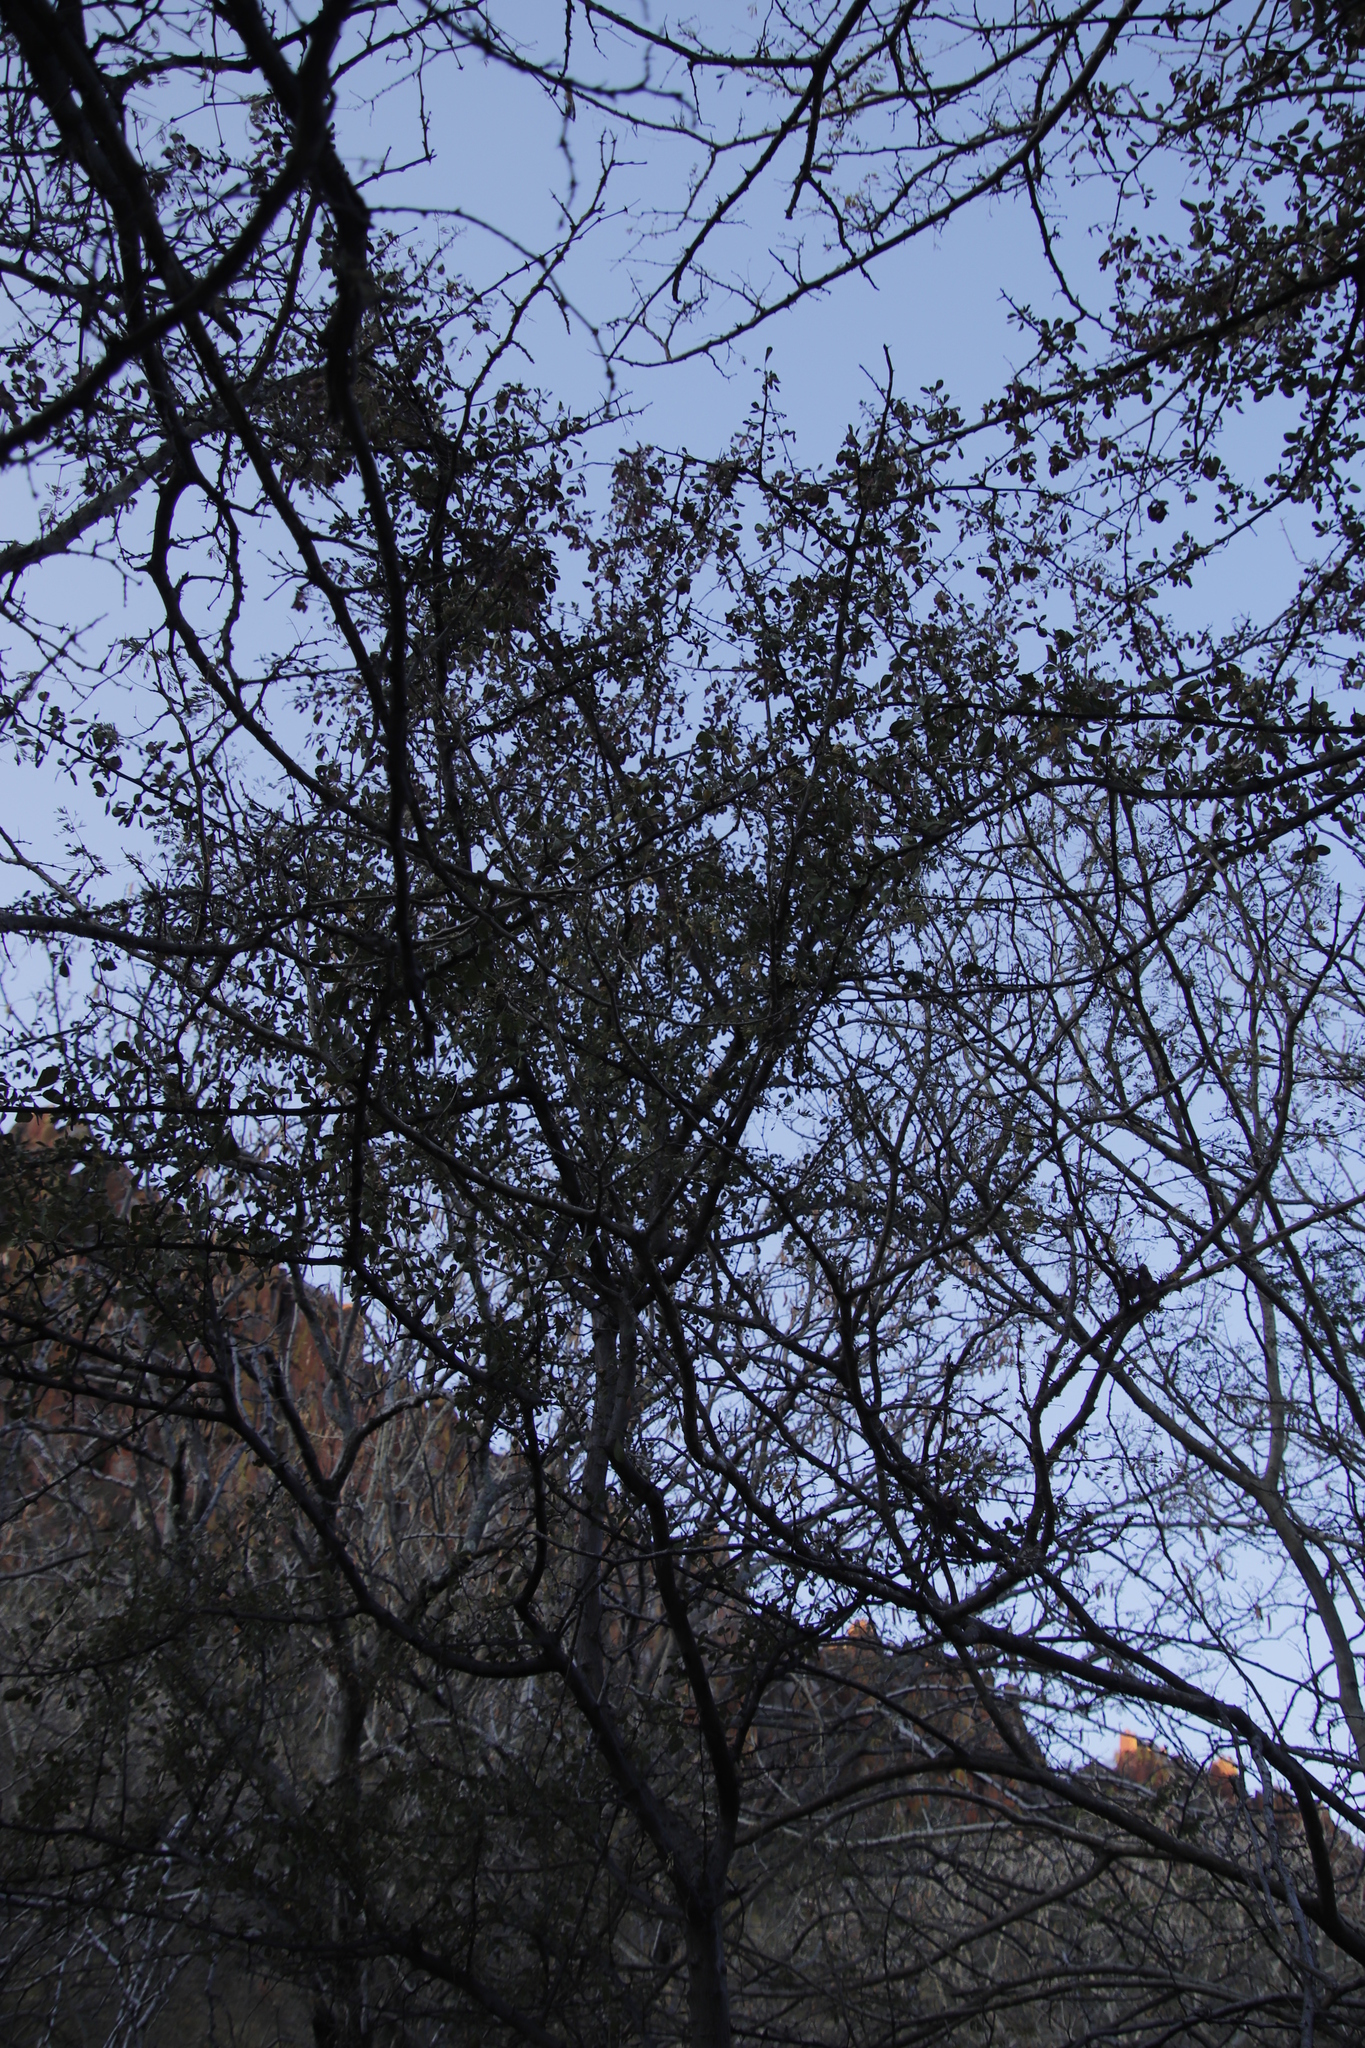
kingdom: Plantae
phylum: Tracheophyta
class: Magnoliopsida
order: Myrtales
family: Combretaceae
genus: Terminalia
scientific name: Terminalia prunioides
